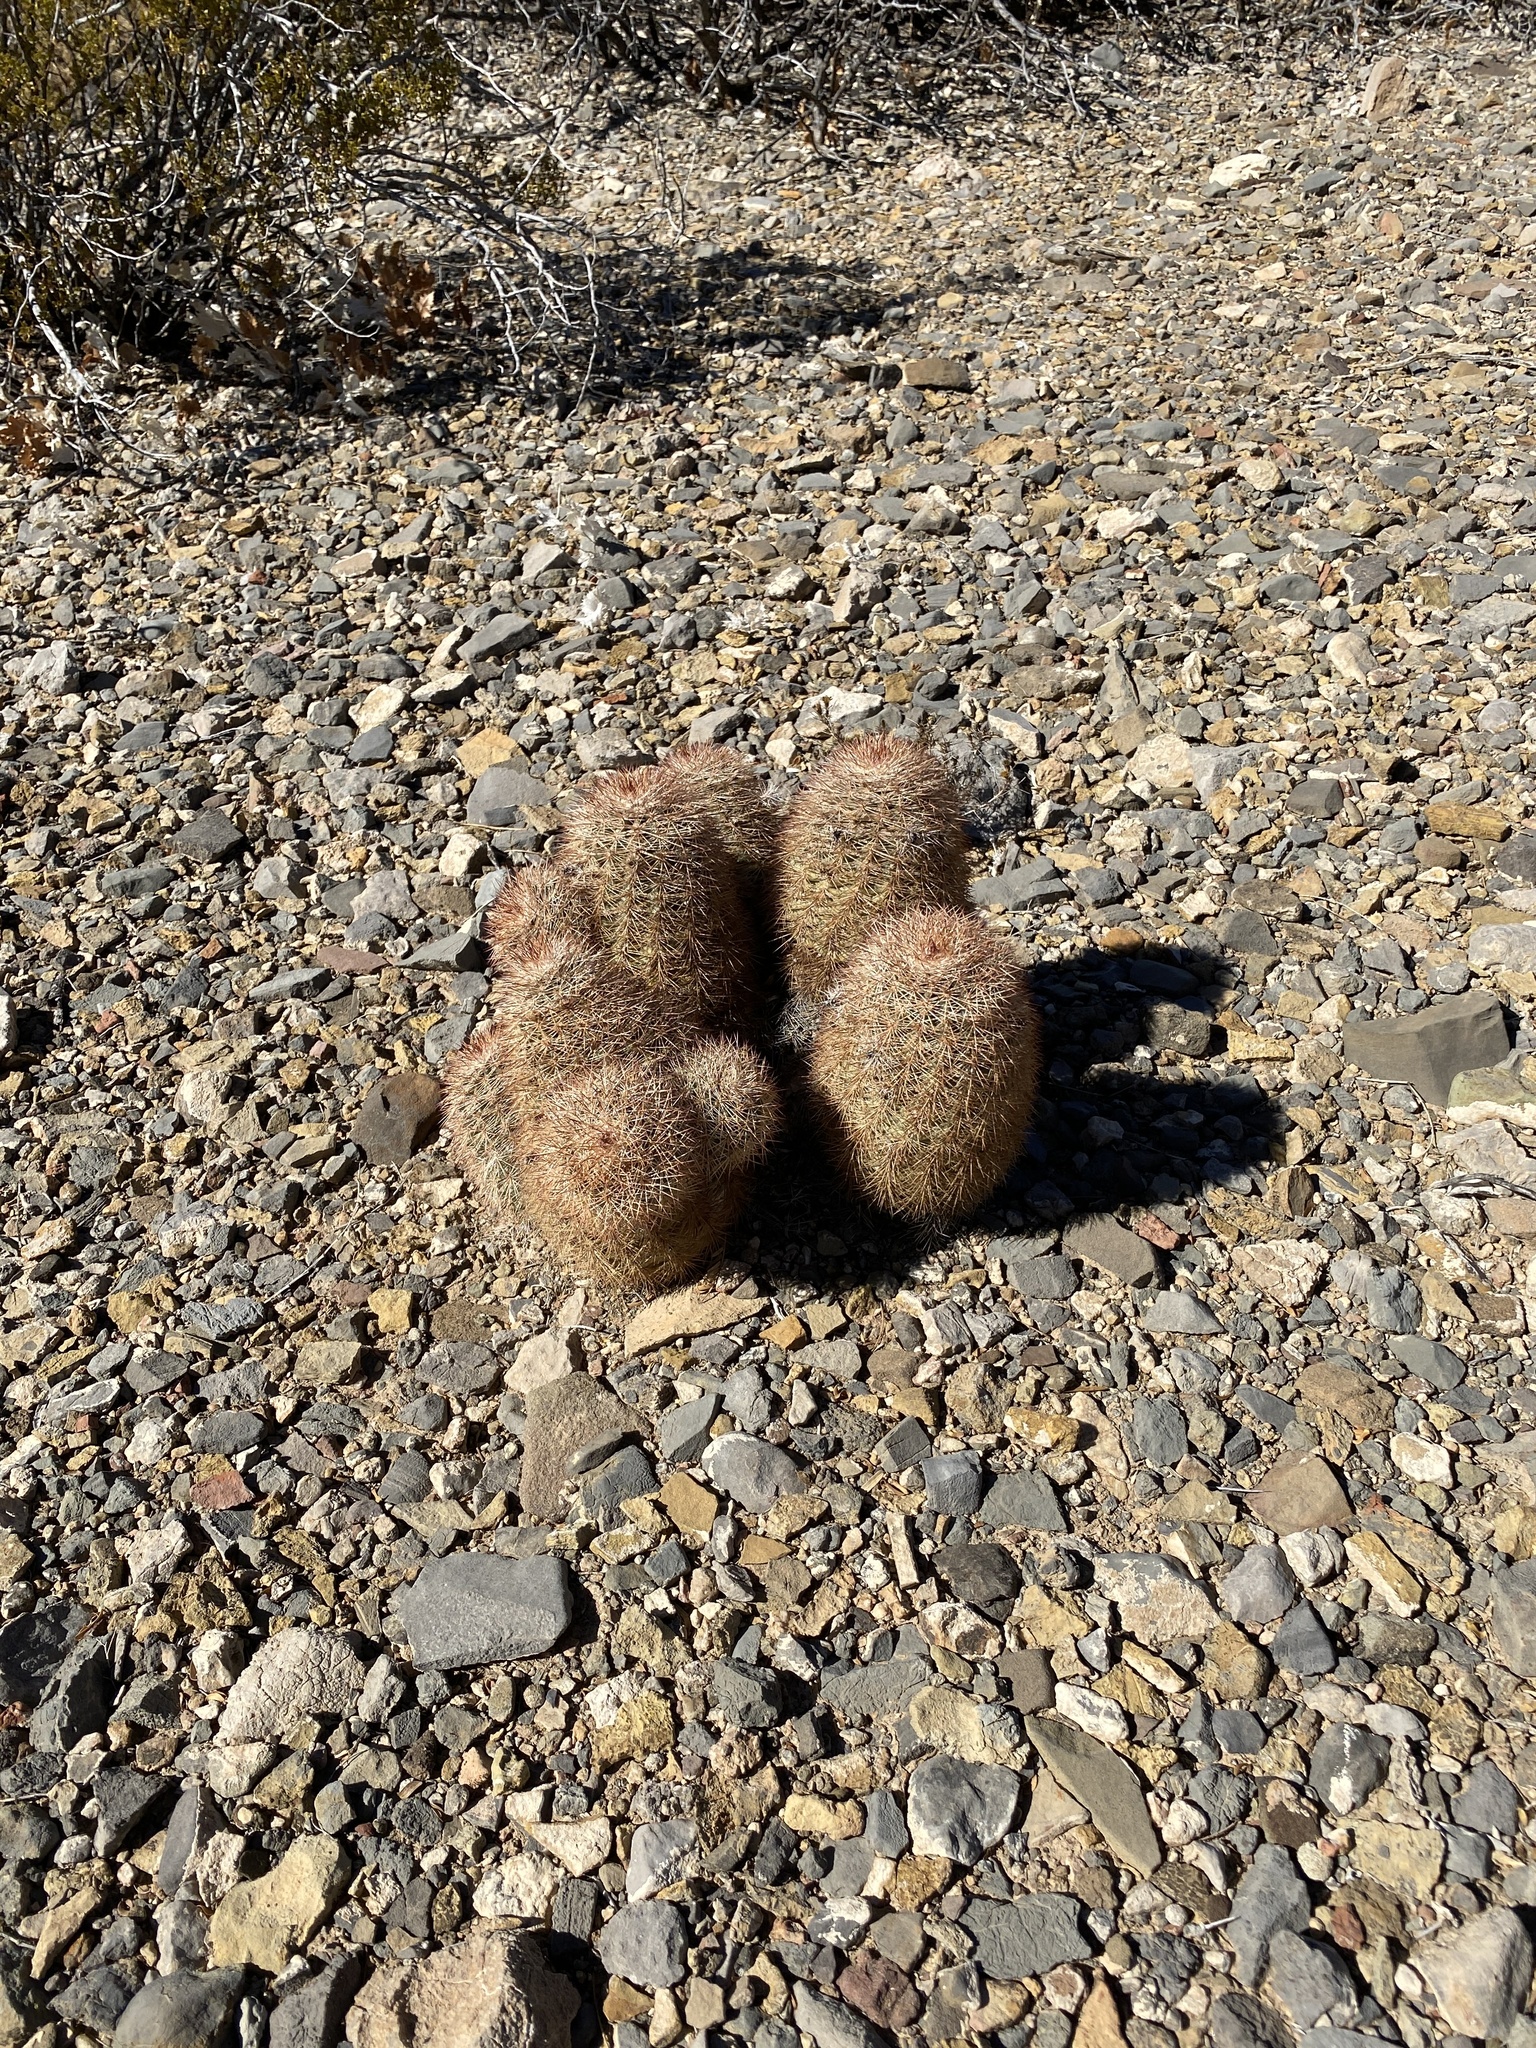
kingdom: Plantae
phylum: Tracheophyta
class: Magnoliopsida
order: Caryophyllales
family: Cactaceae
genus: Echinocereus
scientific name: Echinocereus dasyacanthus
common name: Spiny hedgehog cactus
